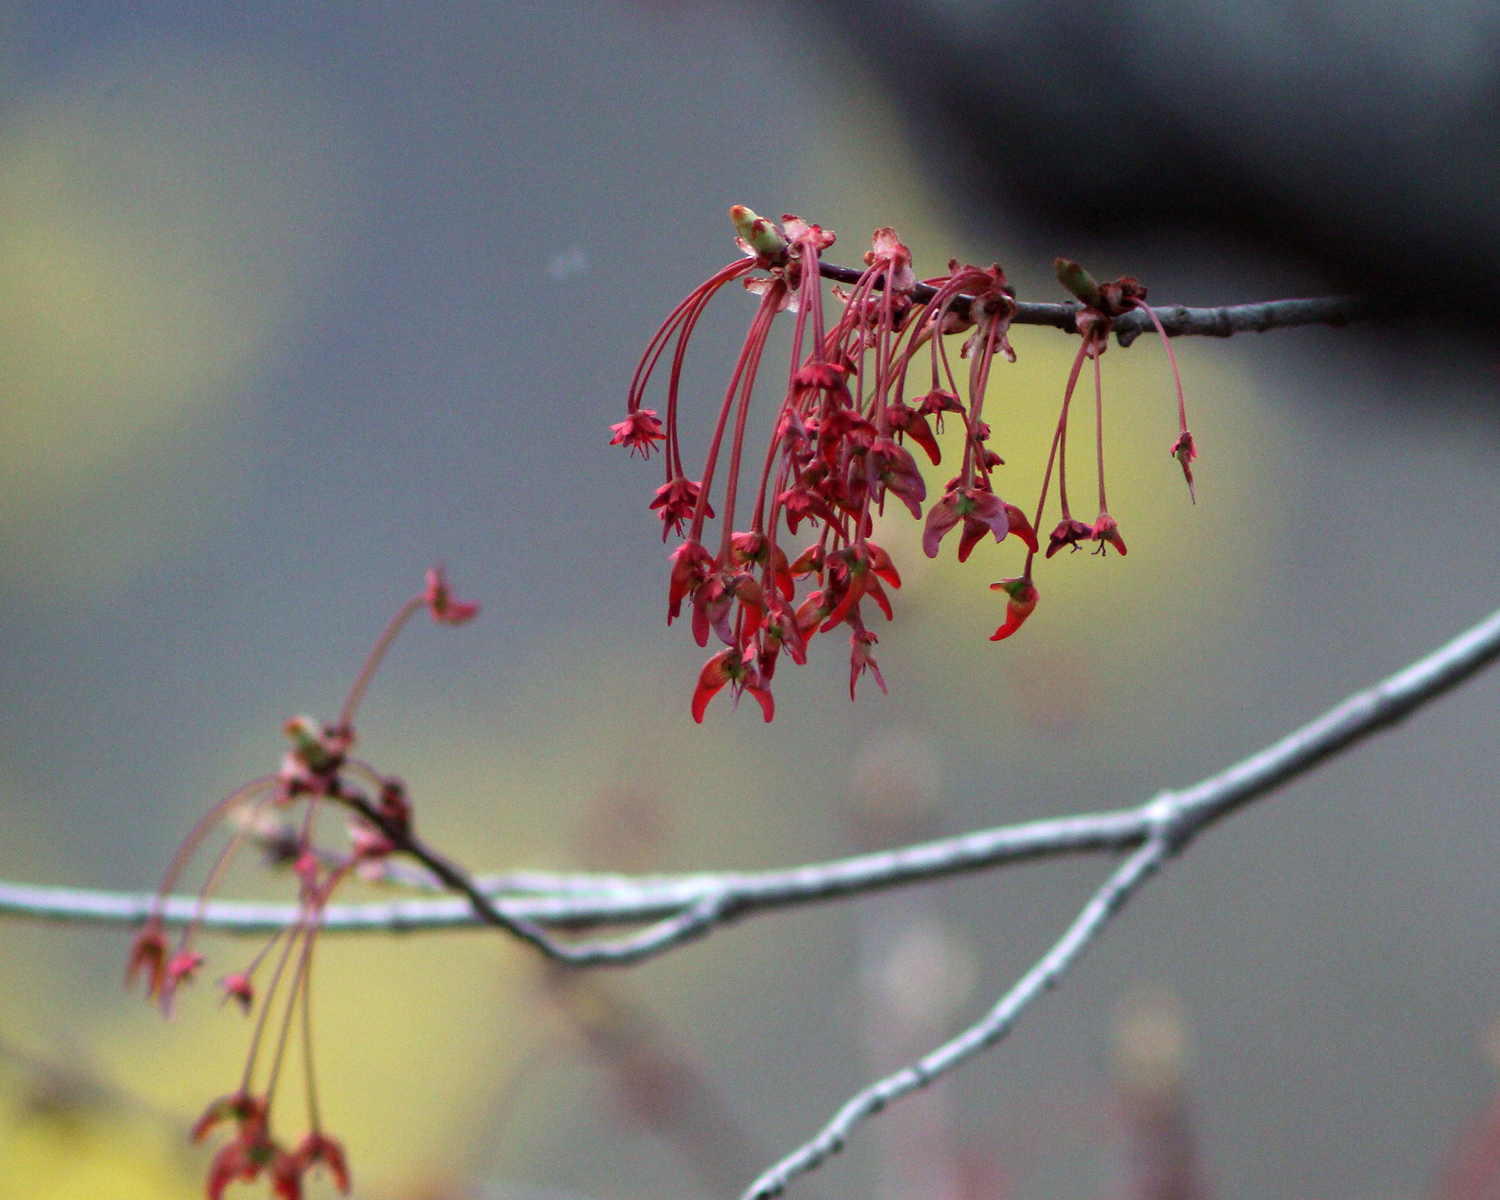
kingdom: Plantae
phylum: Tracheophyta
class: Magnoliopsida
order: Sapindales
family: Sapindaceae
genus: Acer
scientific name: Acer rubrum
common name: Red maple
